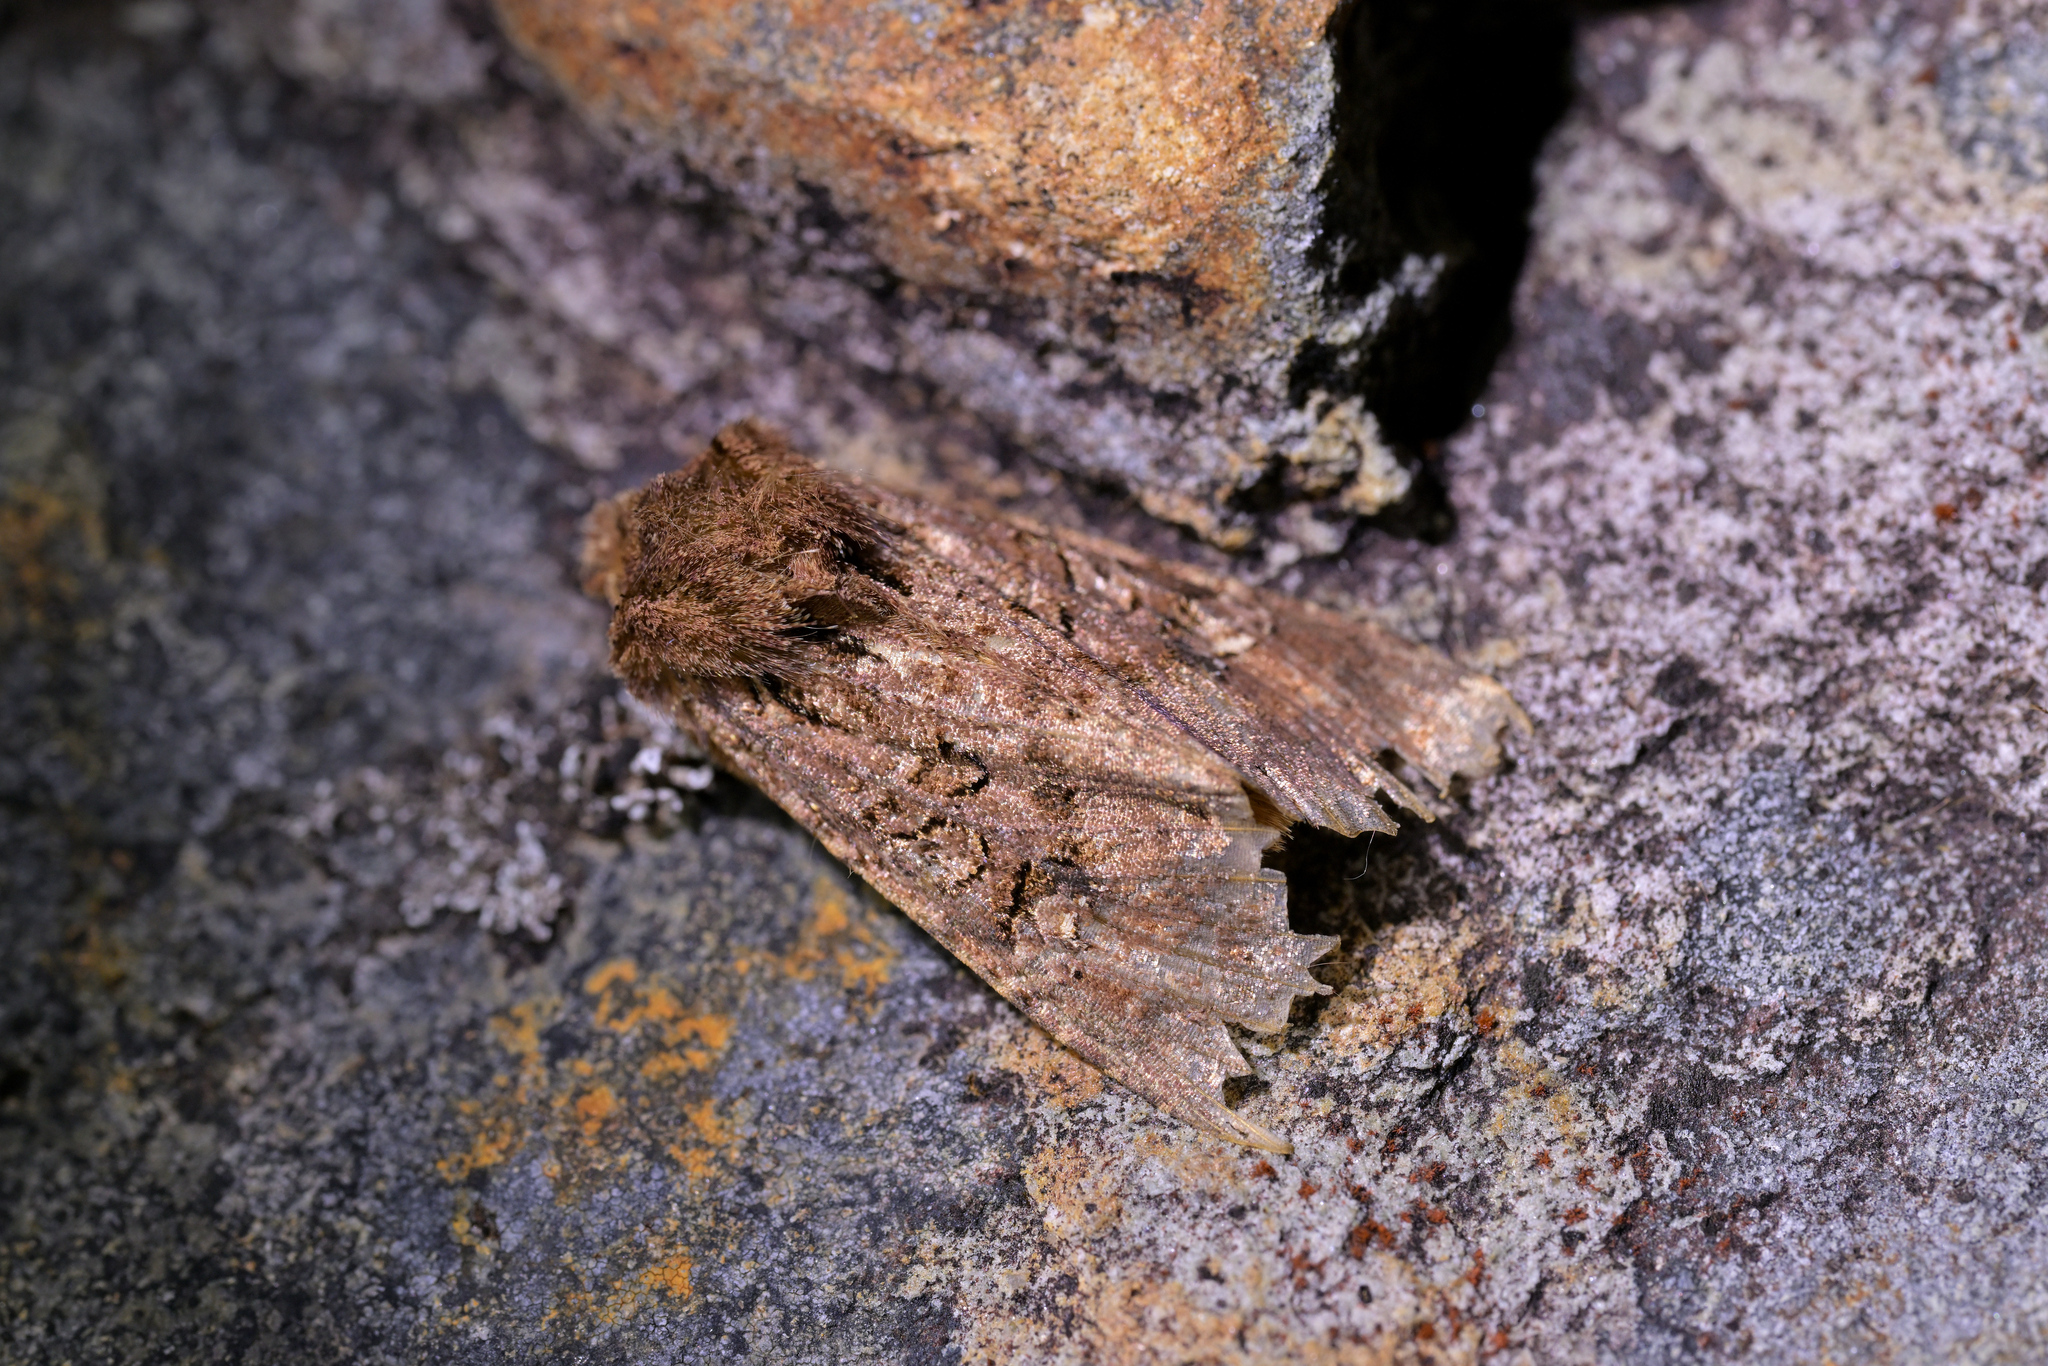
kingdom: Animalia
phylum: Arthropoda
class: Insecta
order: Lepidoptera
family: Noctuidae
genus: Meterana
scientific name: Meterana
